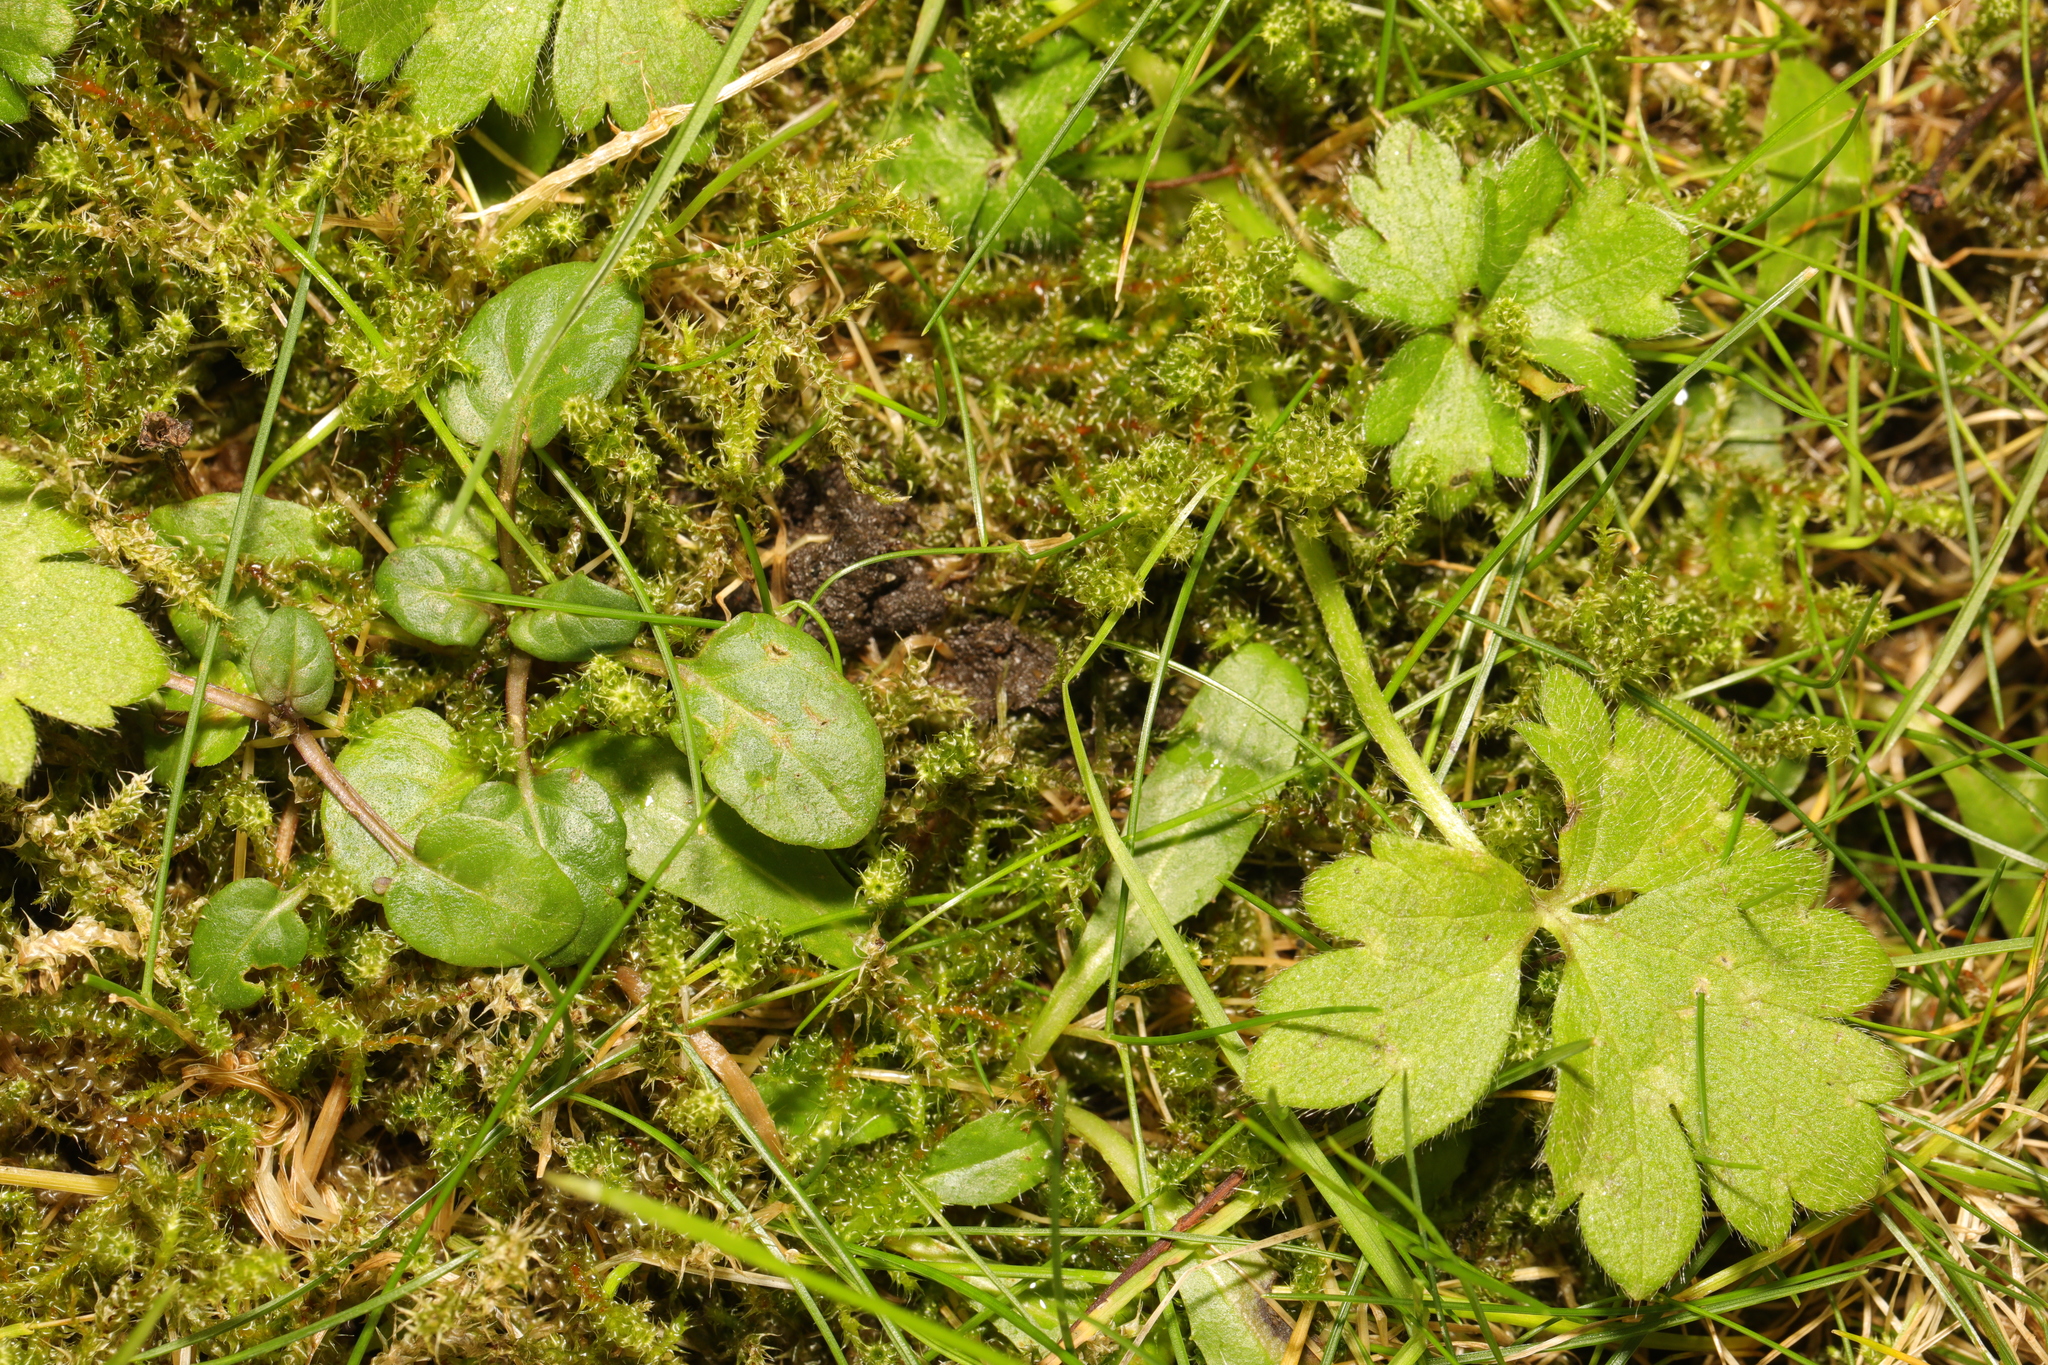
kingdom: Plantae
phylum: Tracheophyta
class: Magnoliopsida
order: Ranunculales
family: Ranunculaceae
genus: Ranunculus
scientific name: Ranunculus repens
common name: Creeping buttercup
